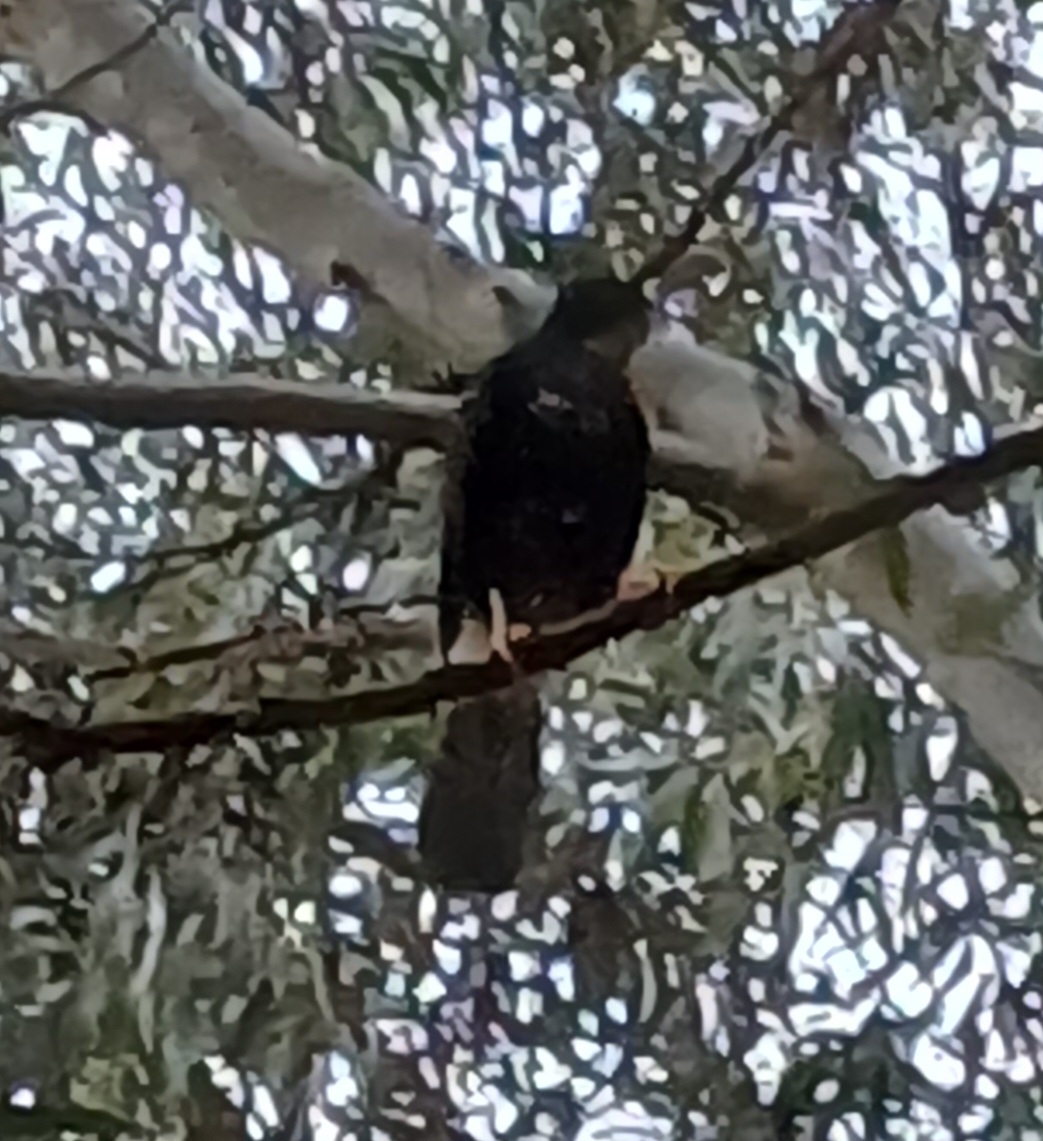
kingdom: Animalia
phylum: Chordata
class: Aves
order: Accipitriformes
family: Accipitridae
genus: Accipiter
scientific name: Accipiter melanoleucus
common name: Black sparrowhawk
